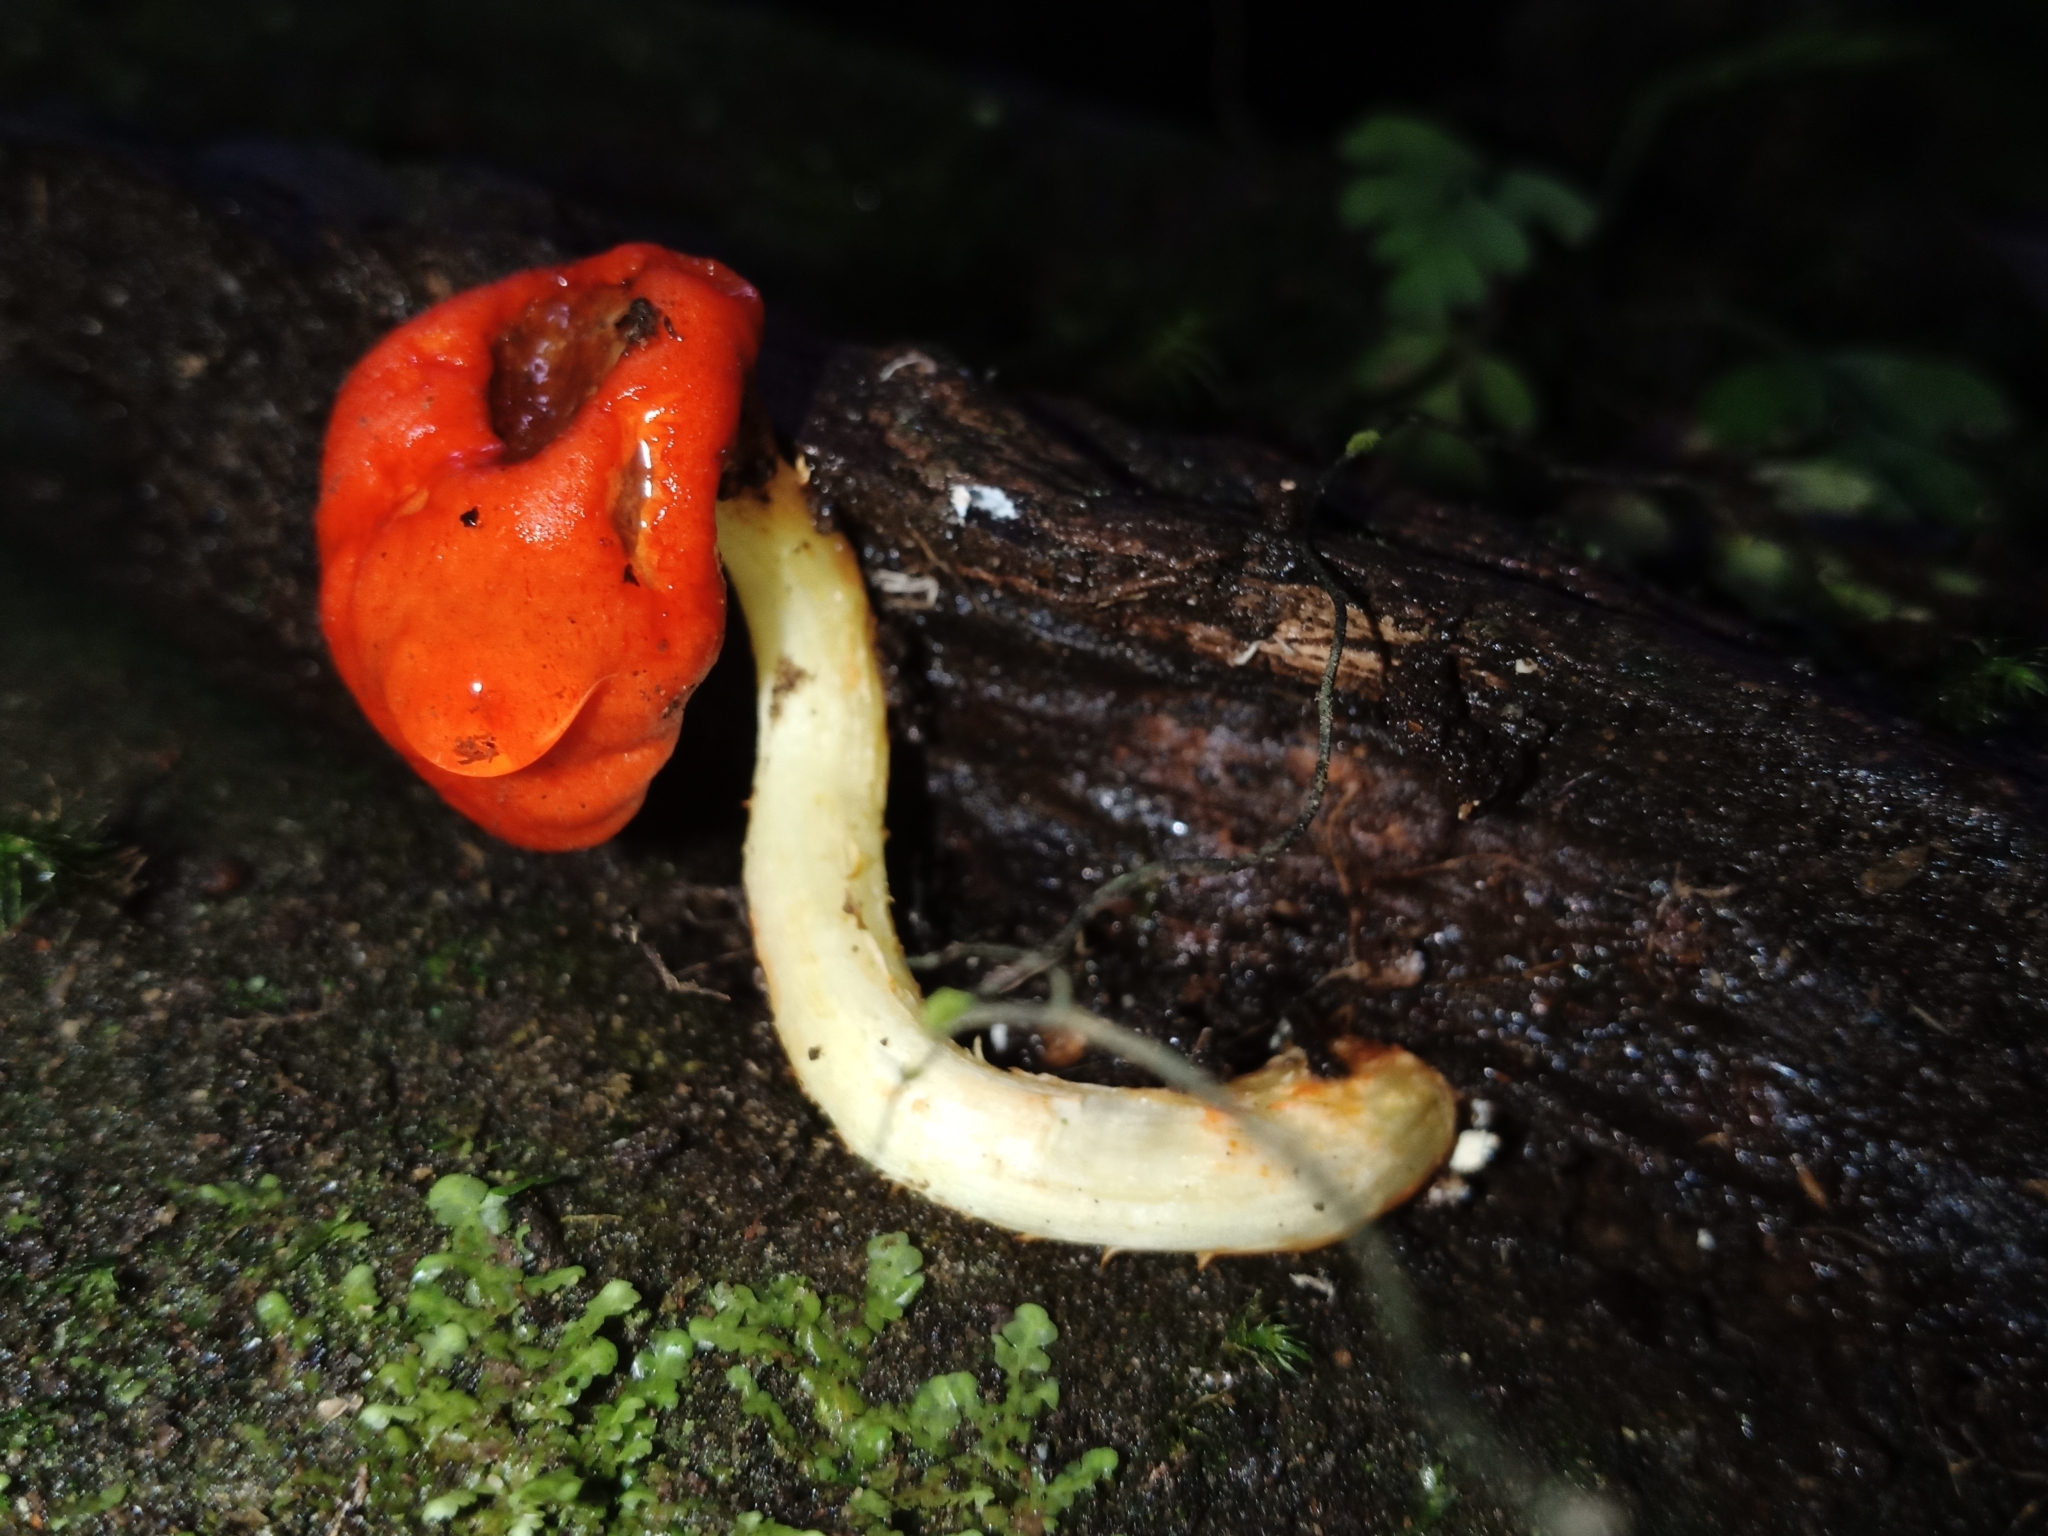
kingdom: Fungi
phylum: Basidiomycota
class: Agaricomycetes
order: Agaricales
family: Strophariaceae
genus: Leratiomyces
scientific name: Leratiomyces erythrocephalus
